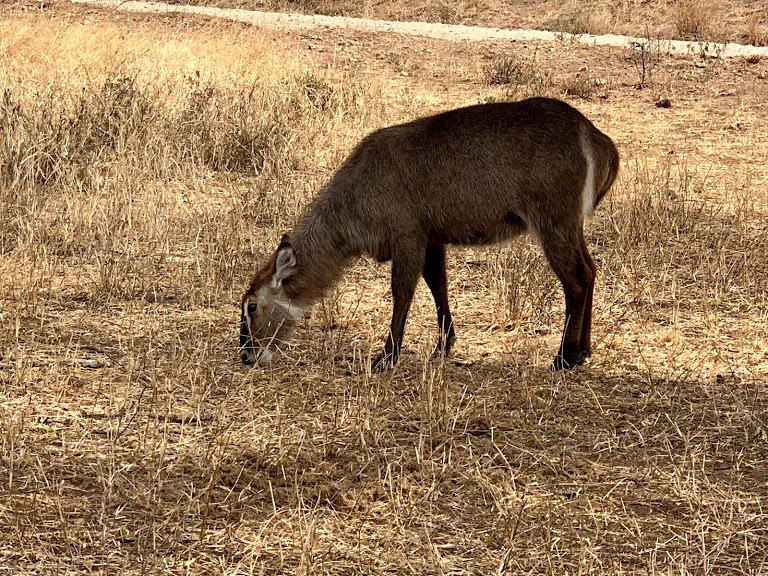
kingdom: Animalia
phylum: Chordata
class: Mammalia
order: Artiodactyla
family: Bovidae
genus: Kobus
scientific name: Kobus ellipsiprymnus
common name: Waterbuck
